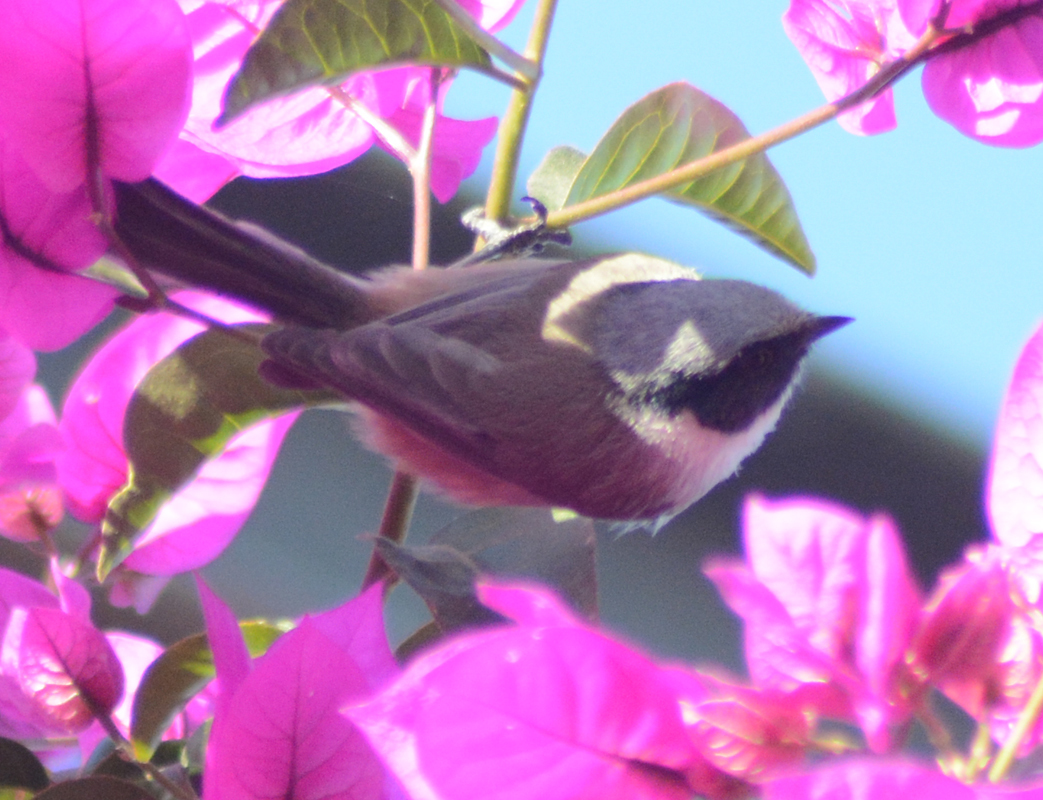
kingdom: Animalia
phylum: Chordata
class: Aves
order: Passeriformes
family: Aegithalidae
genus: Psaltriparus
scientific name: Psaltriparus minimus
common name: American bushtit
